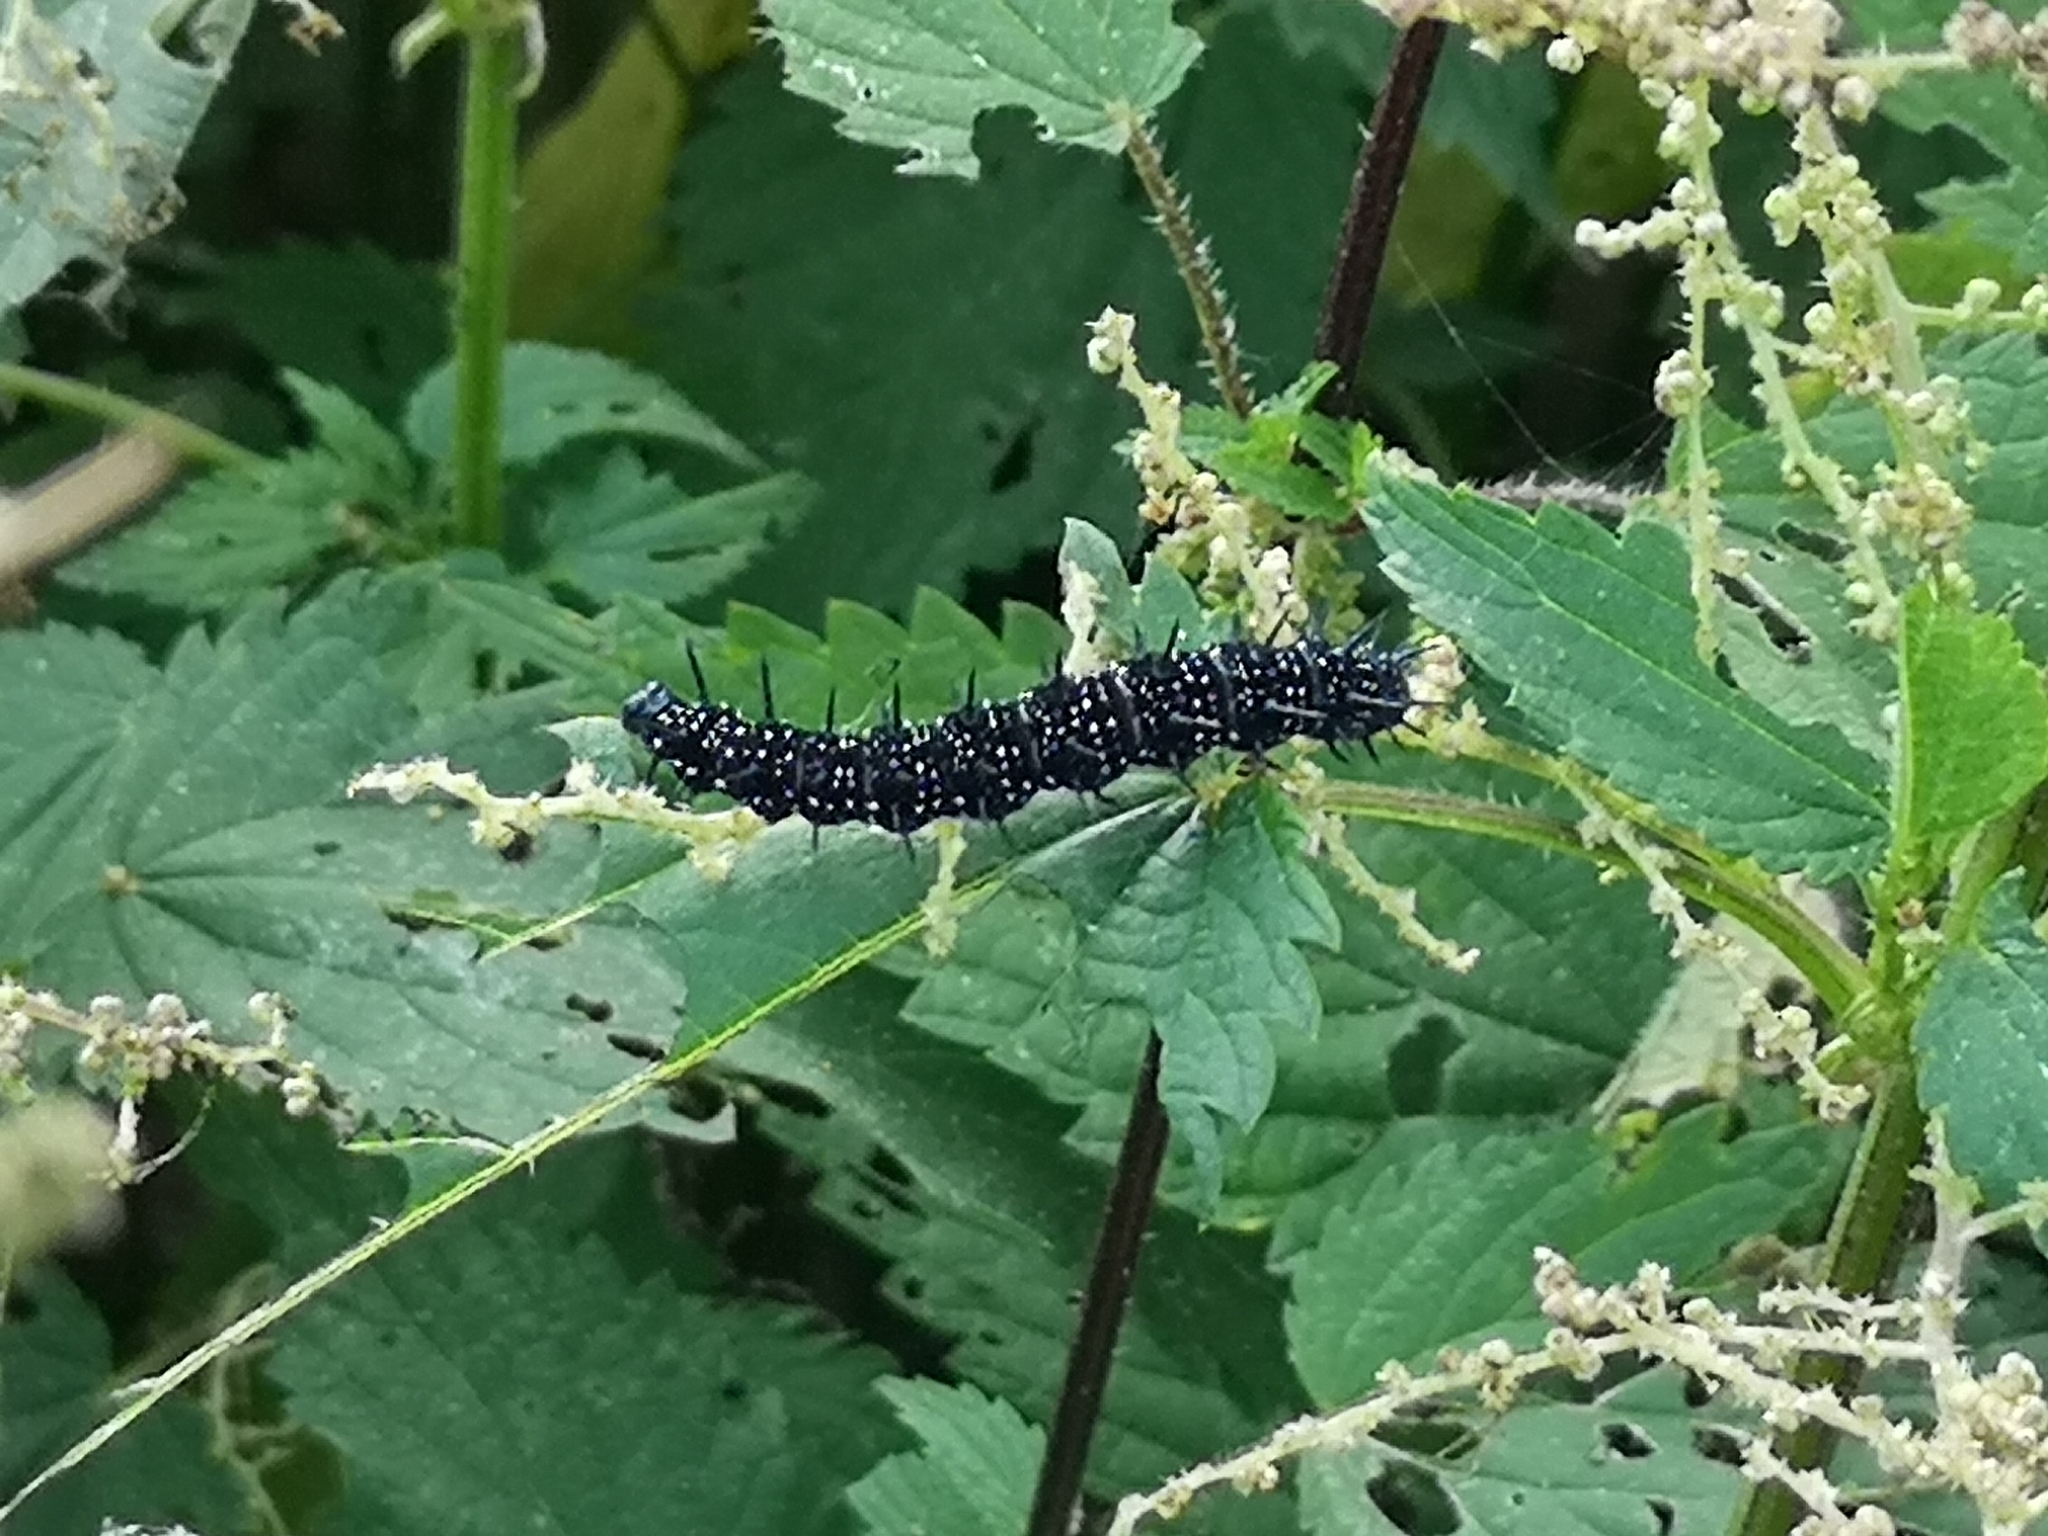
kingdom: Animalia
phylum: Arthropoda
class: Insecta
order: Lepidoptera
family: Nymphalidae
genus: Aglais
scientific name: Aglais io
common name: Peacock
